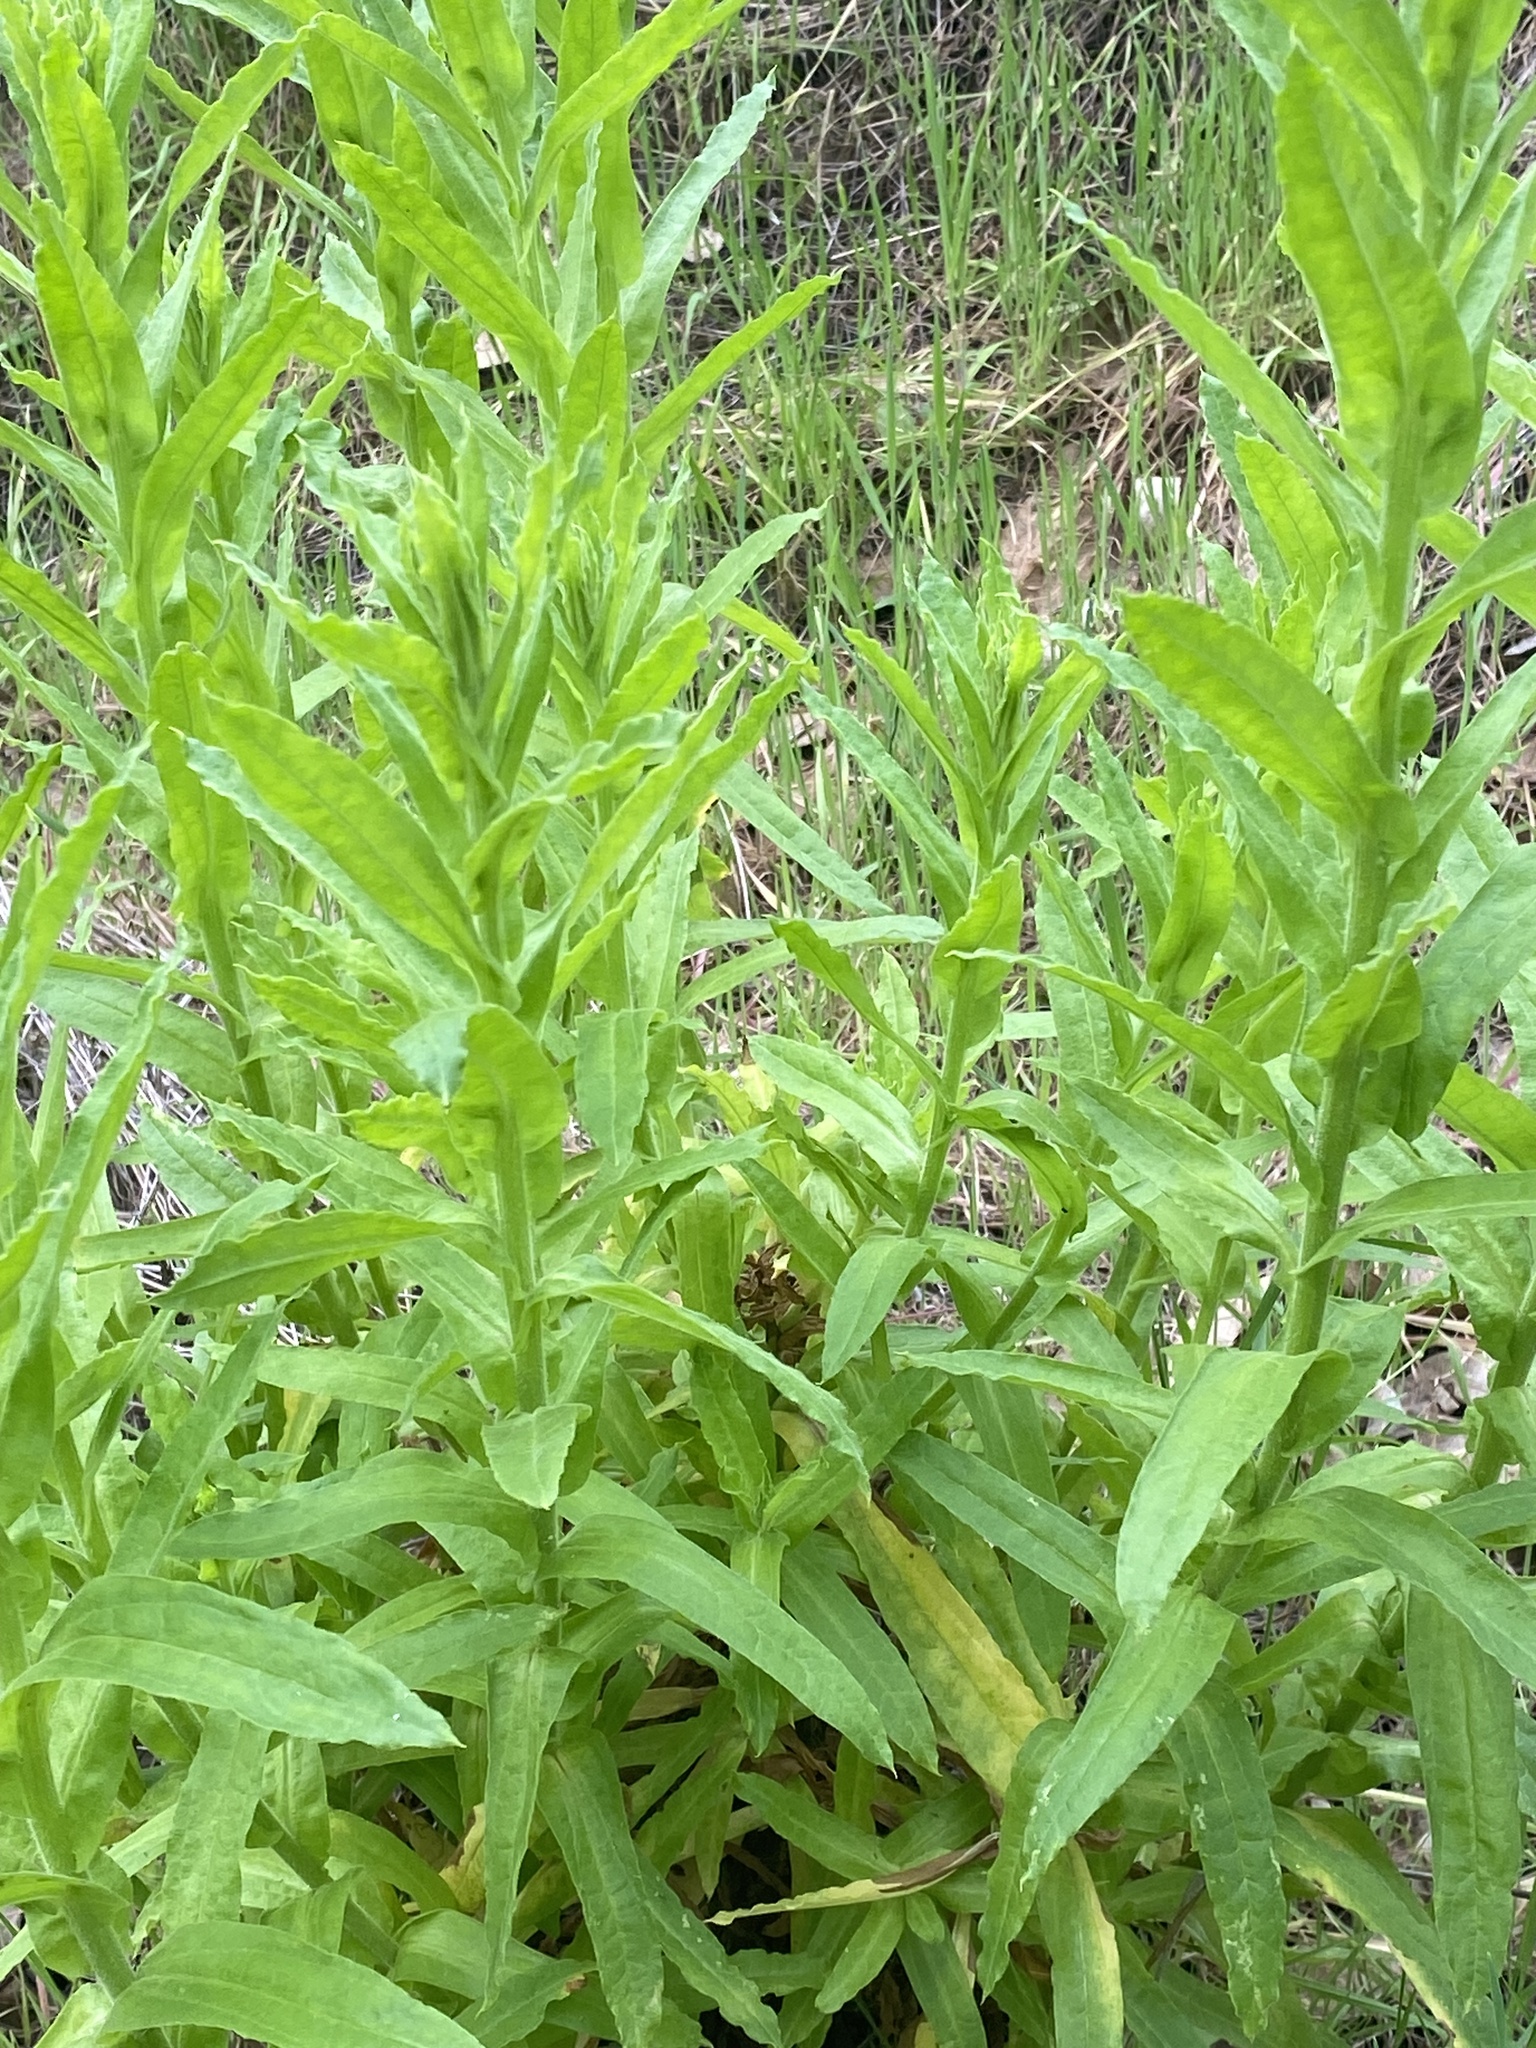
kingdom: Plantae
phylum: Tracheophyta
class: Magnoliopsida
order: Asterales
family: Asteraceae
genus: Pseudognaphalium
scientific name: Pseudognaphalium californicum
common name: California rabbit-tobacco
